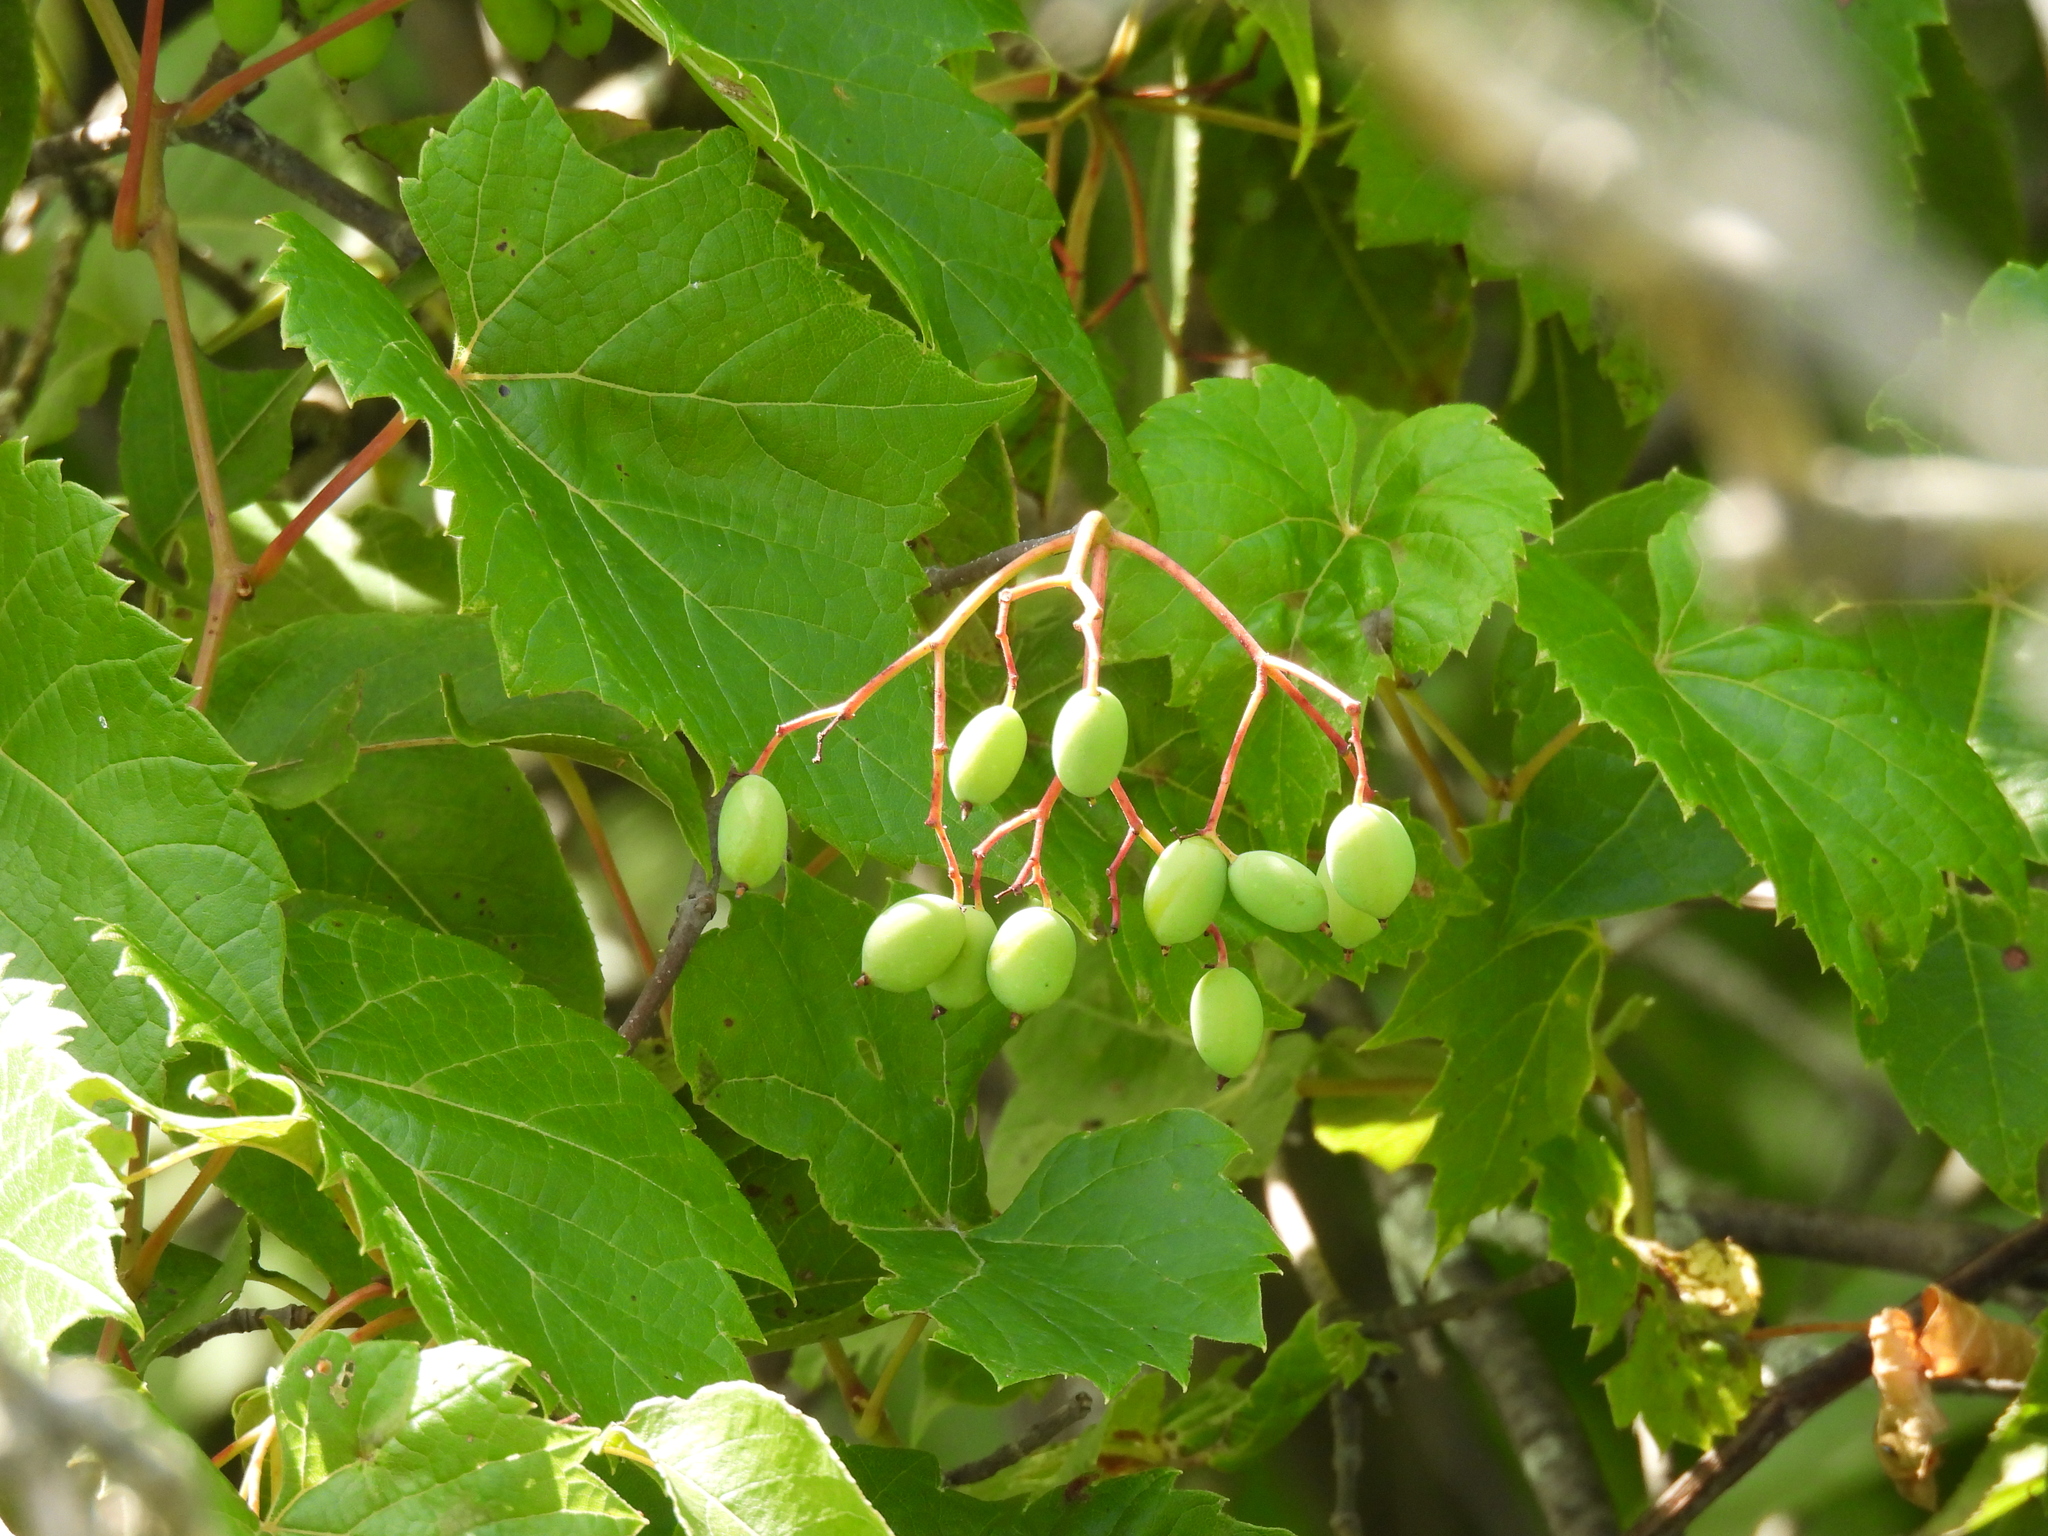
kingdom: Plantae
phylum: Tracheophyta
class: Magnoliopsida
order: Dipsacales
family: Viburnaceae
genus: Viburnum
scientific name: Viburnum lentago
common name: Black haw
